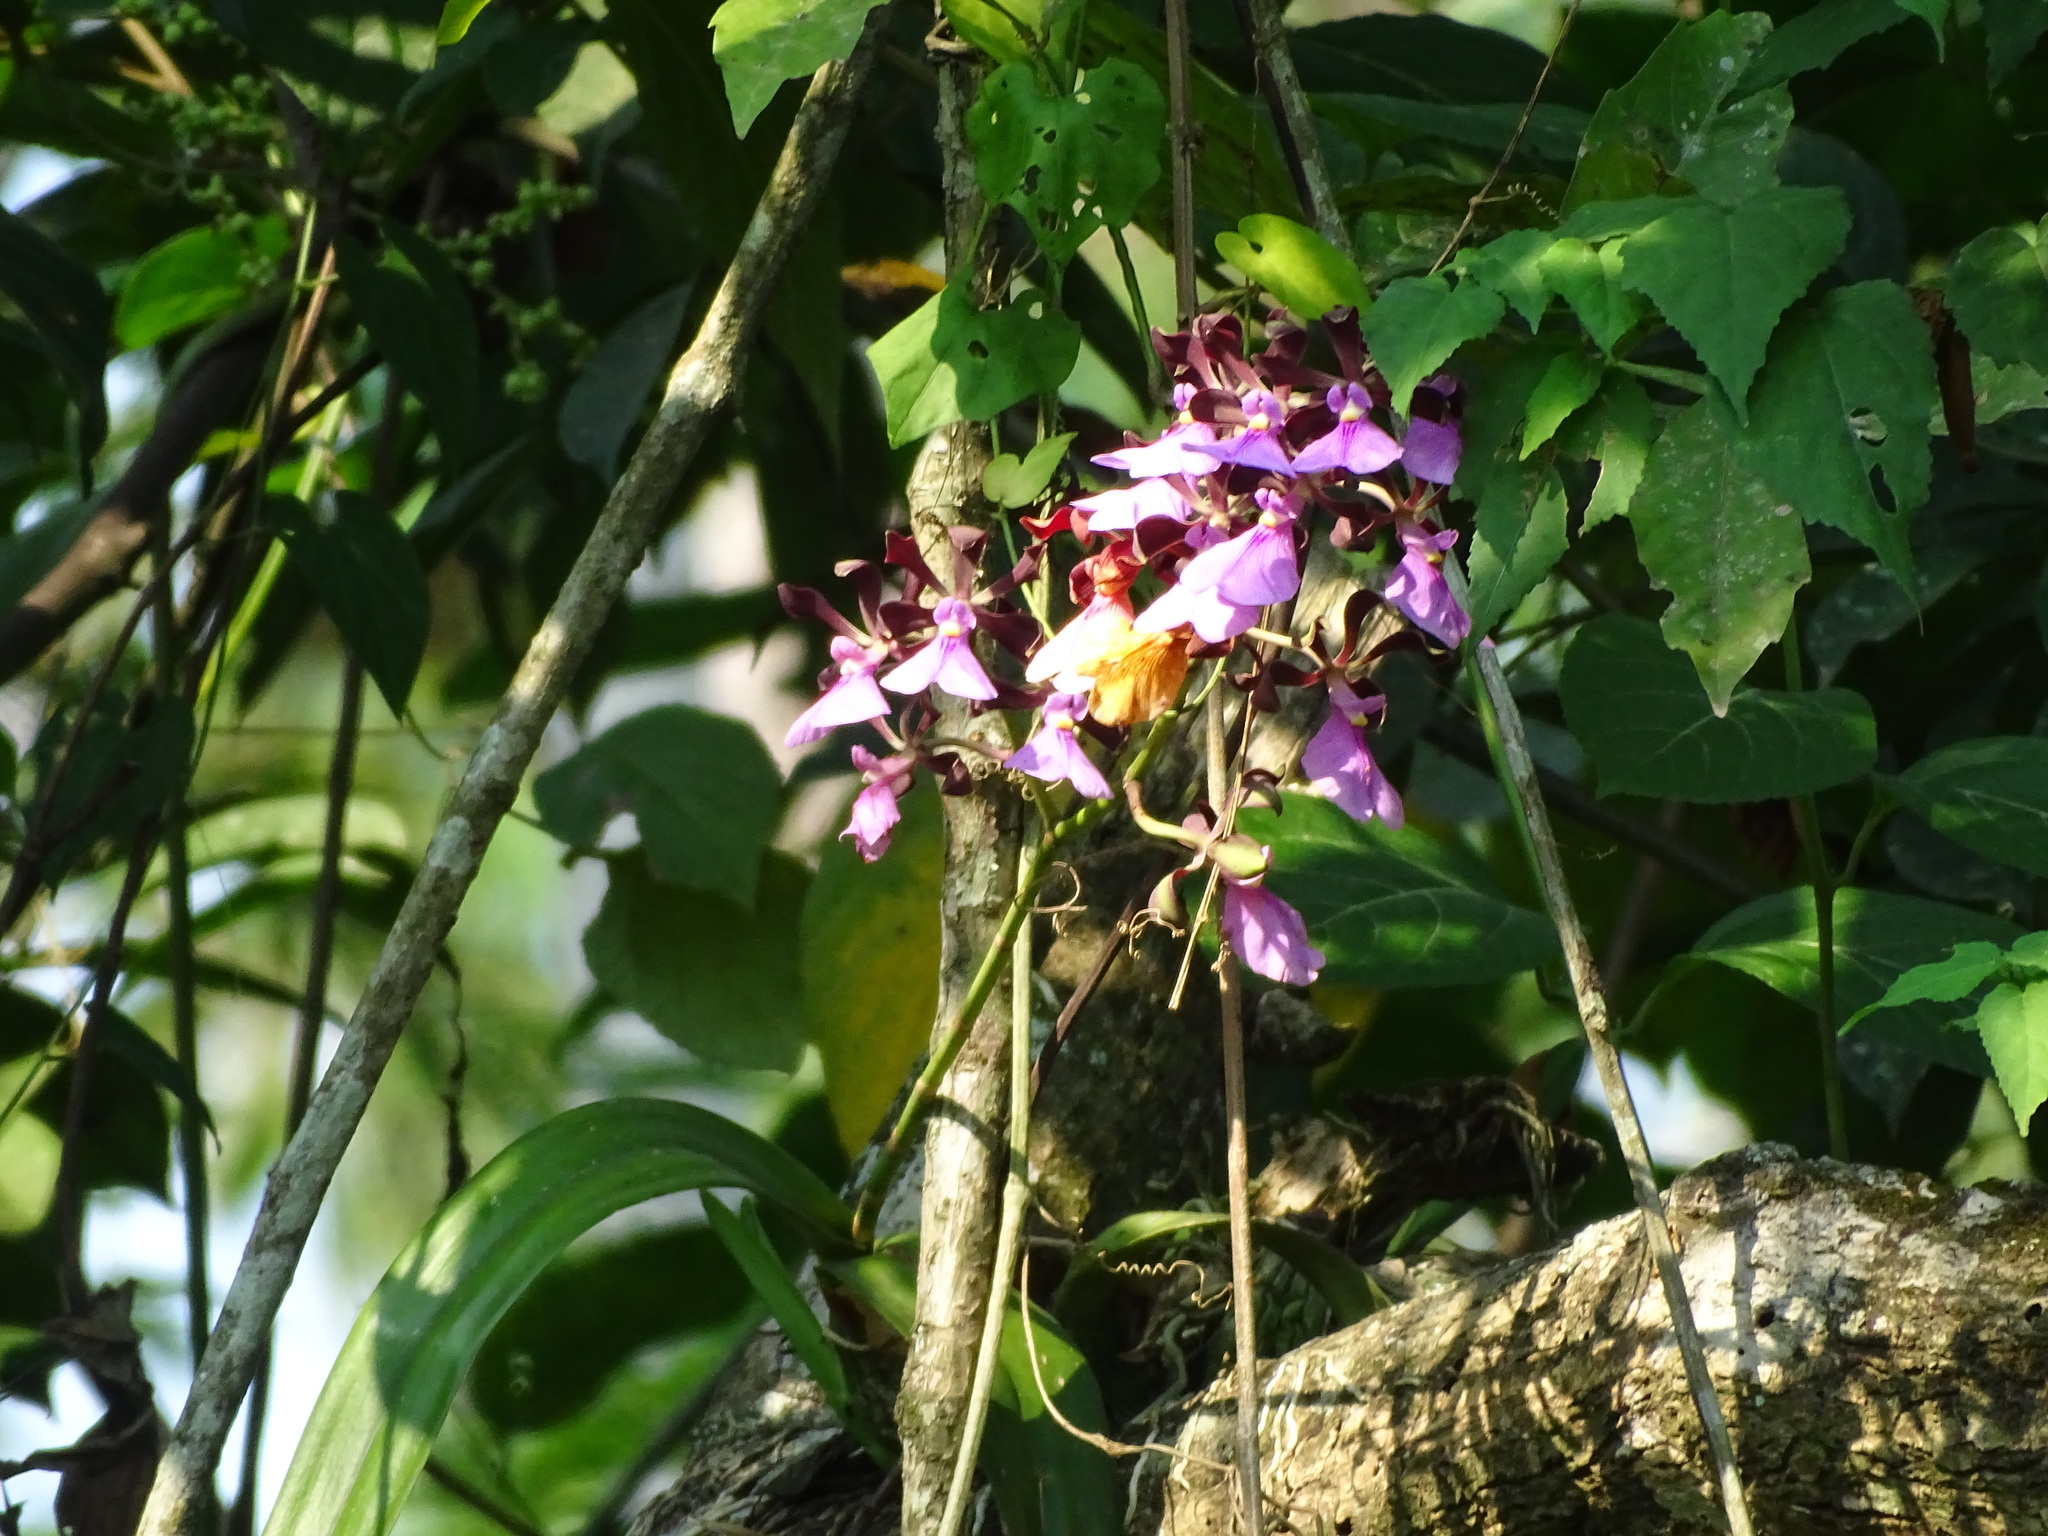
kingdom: Plantae
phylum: Tracheophyta
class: Liliopsida
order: Asparagales
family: Orchidaceae
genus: Encyclia
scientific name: Encyclia cordigera
